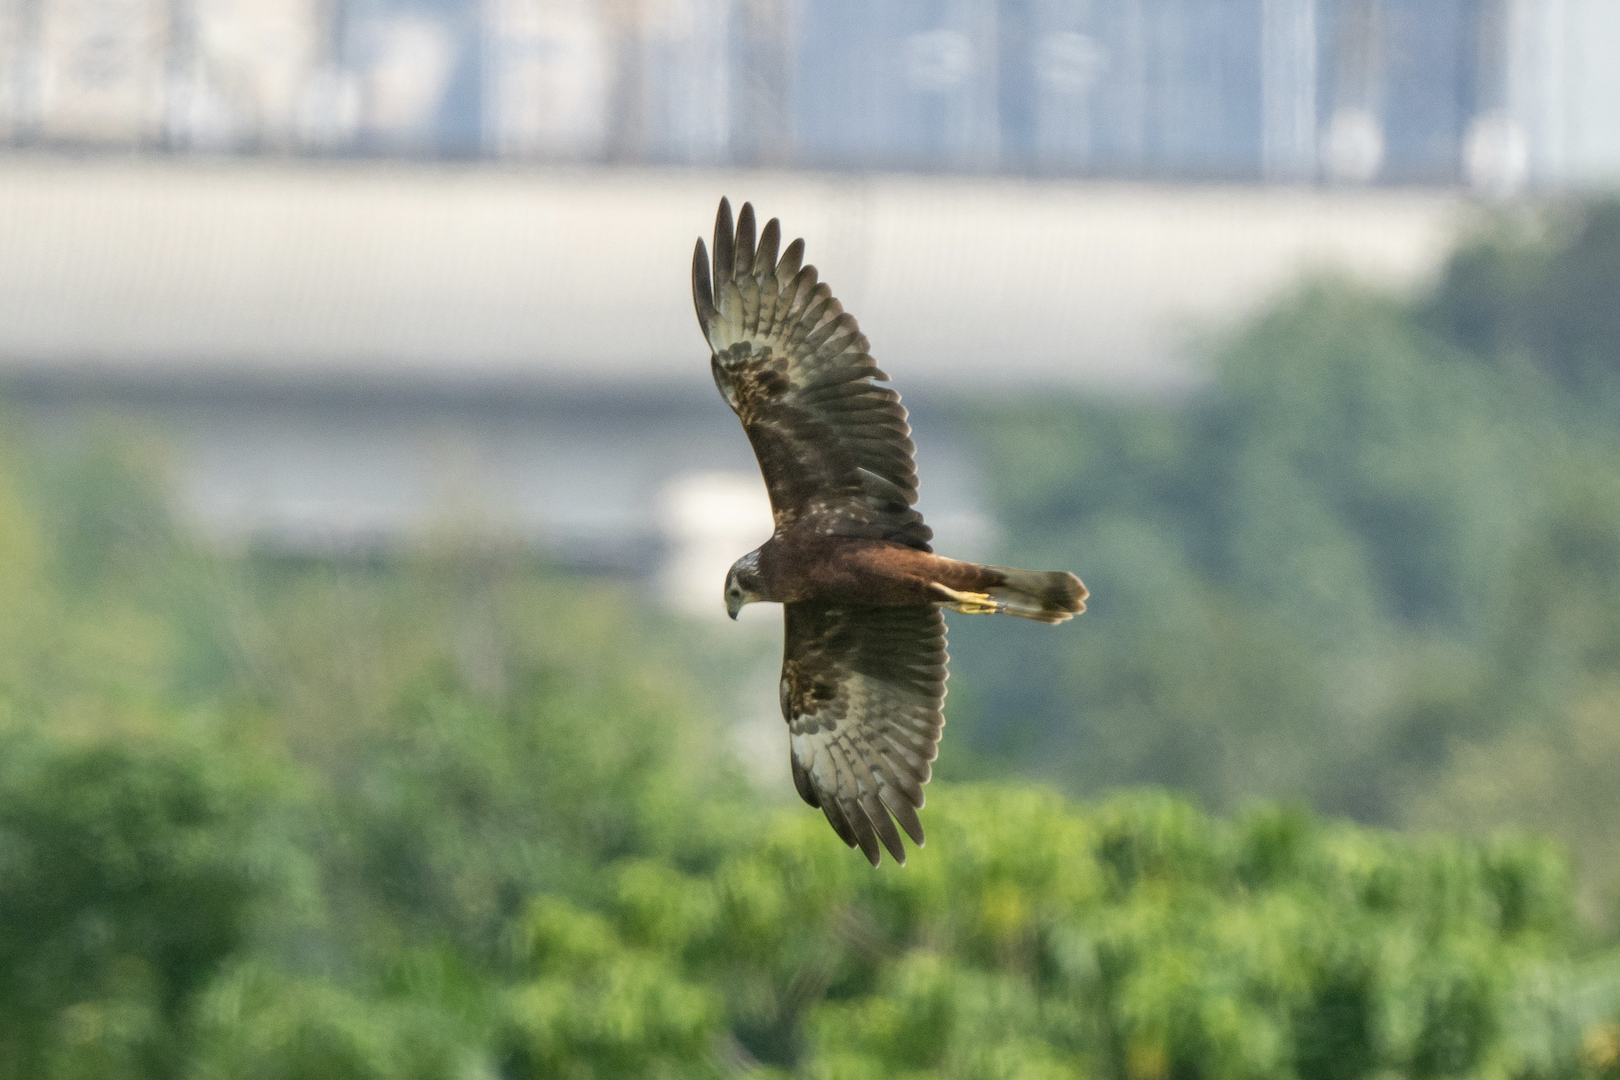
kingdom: Animalia
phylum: Chordata
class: Aves
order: Accipitriformes
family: Accipitridae
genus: Circus
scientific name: Circus spilonotus
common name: Eastern marsh-harrier
